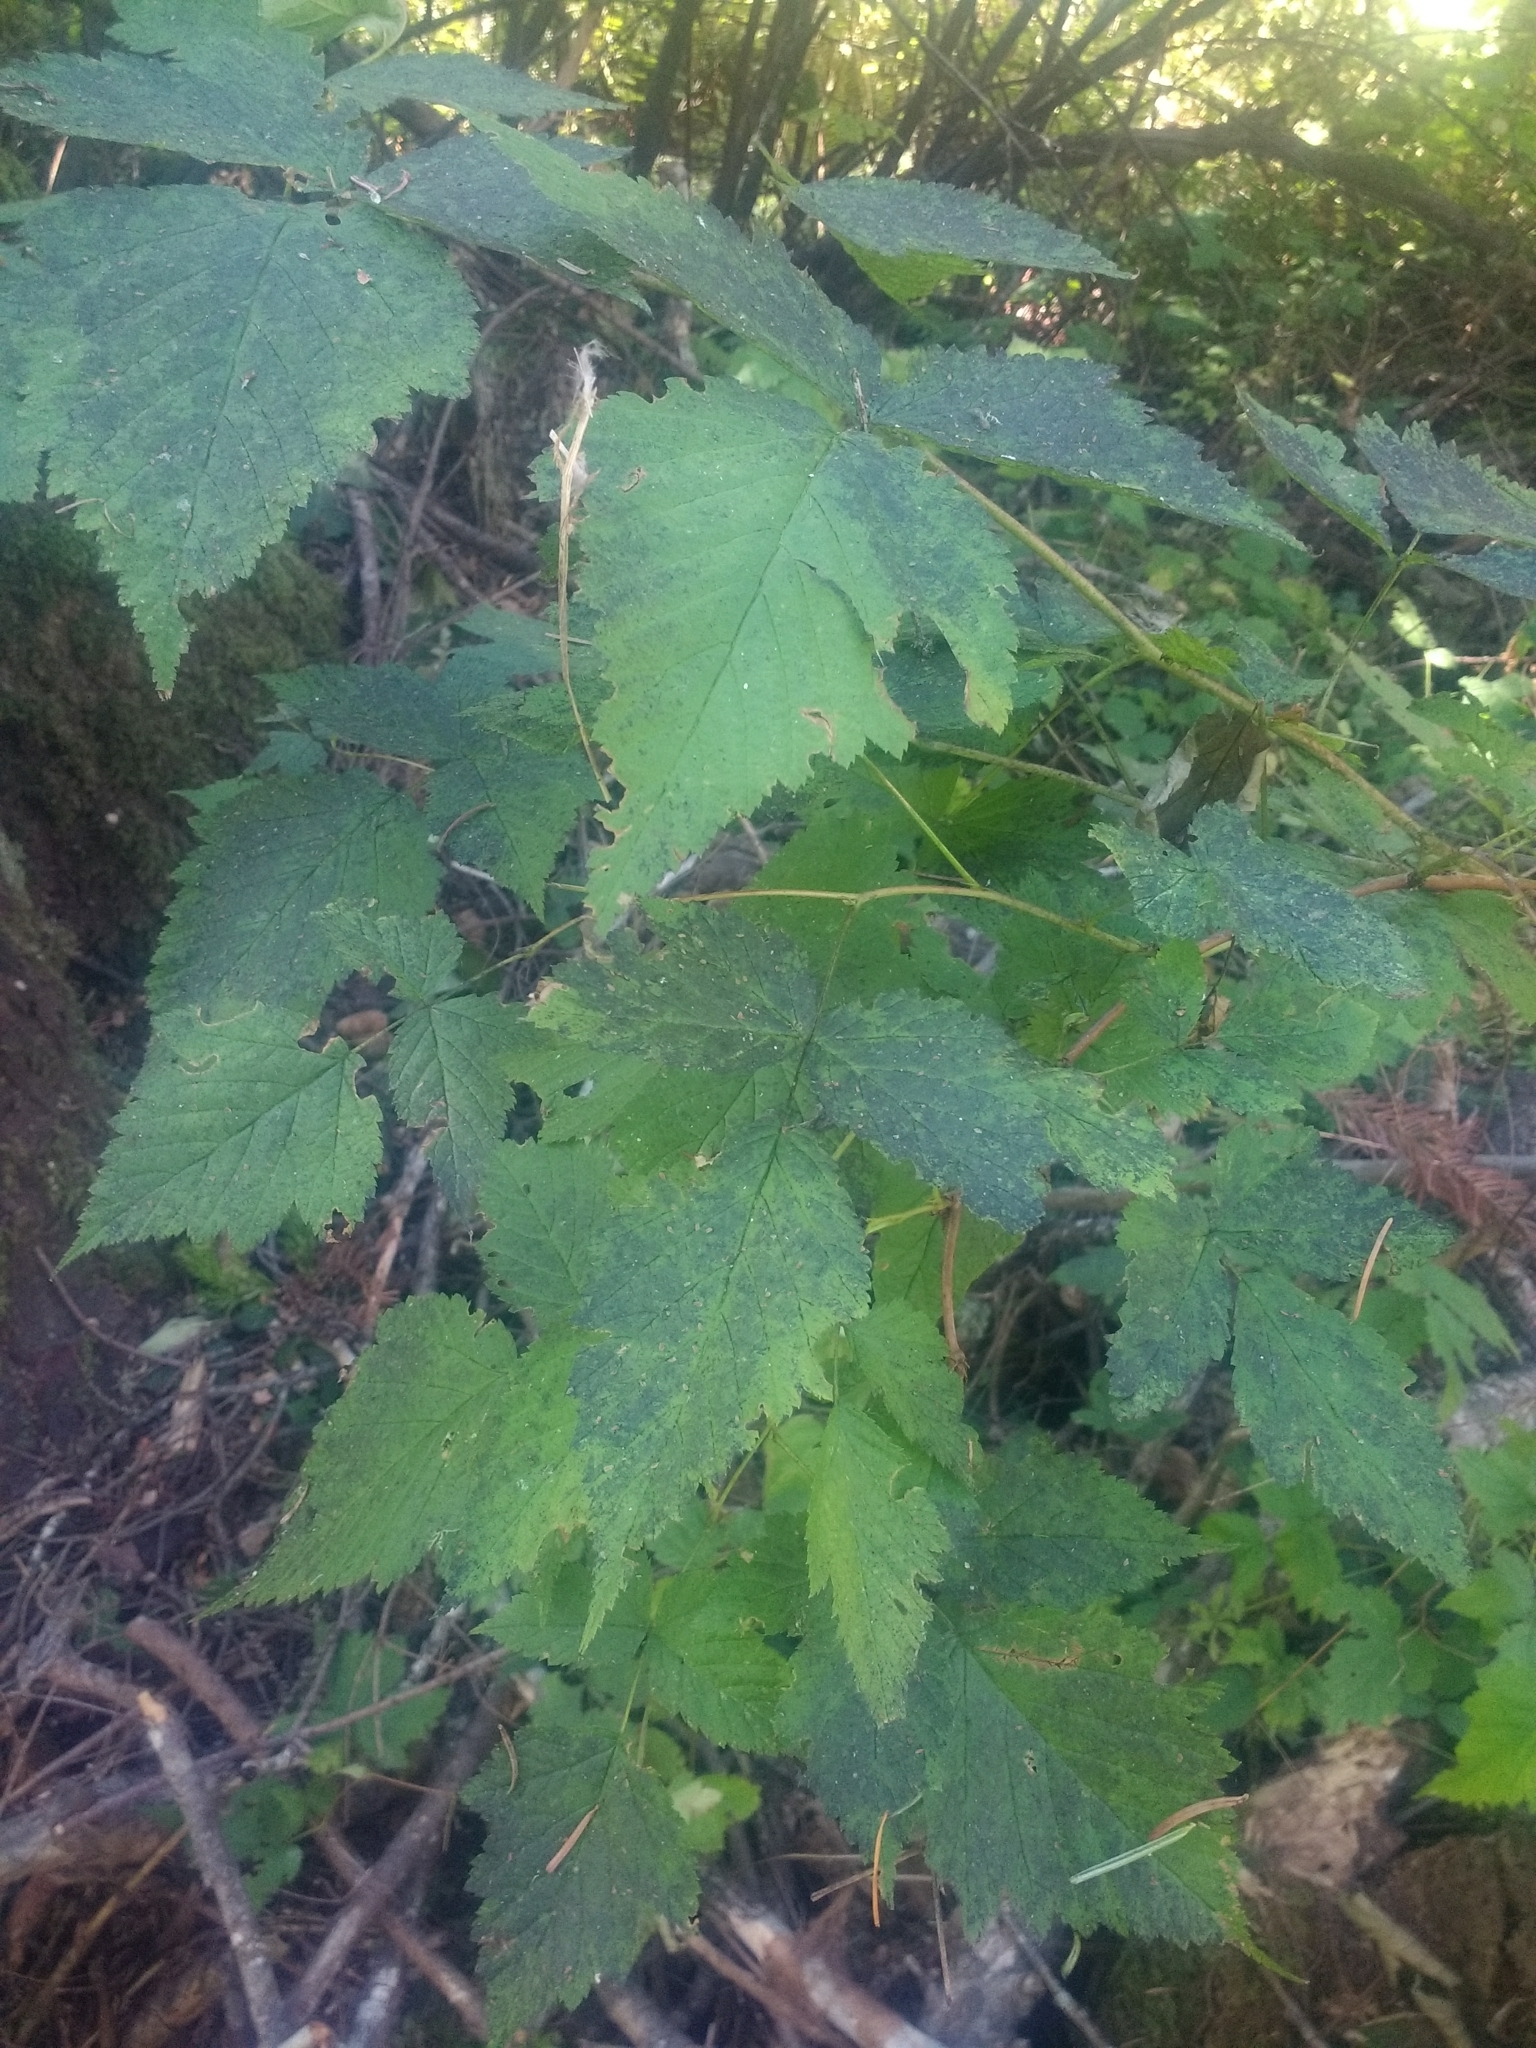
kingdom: Plantae
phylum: Tracheophyta
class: Magnoliopsida
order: Rosales
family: Rosaceae
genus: Rubus
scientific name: Rubus spectabilis
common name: Salmonberry
